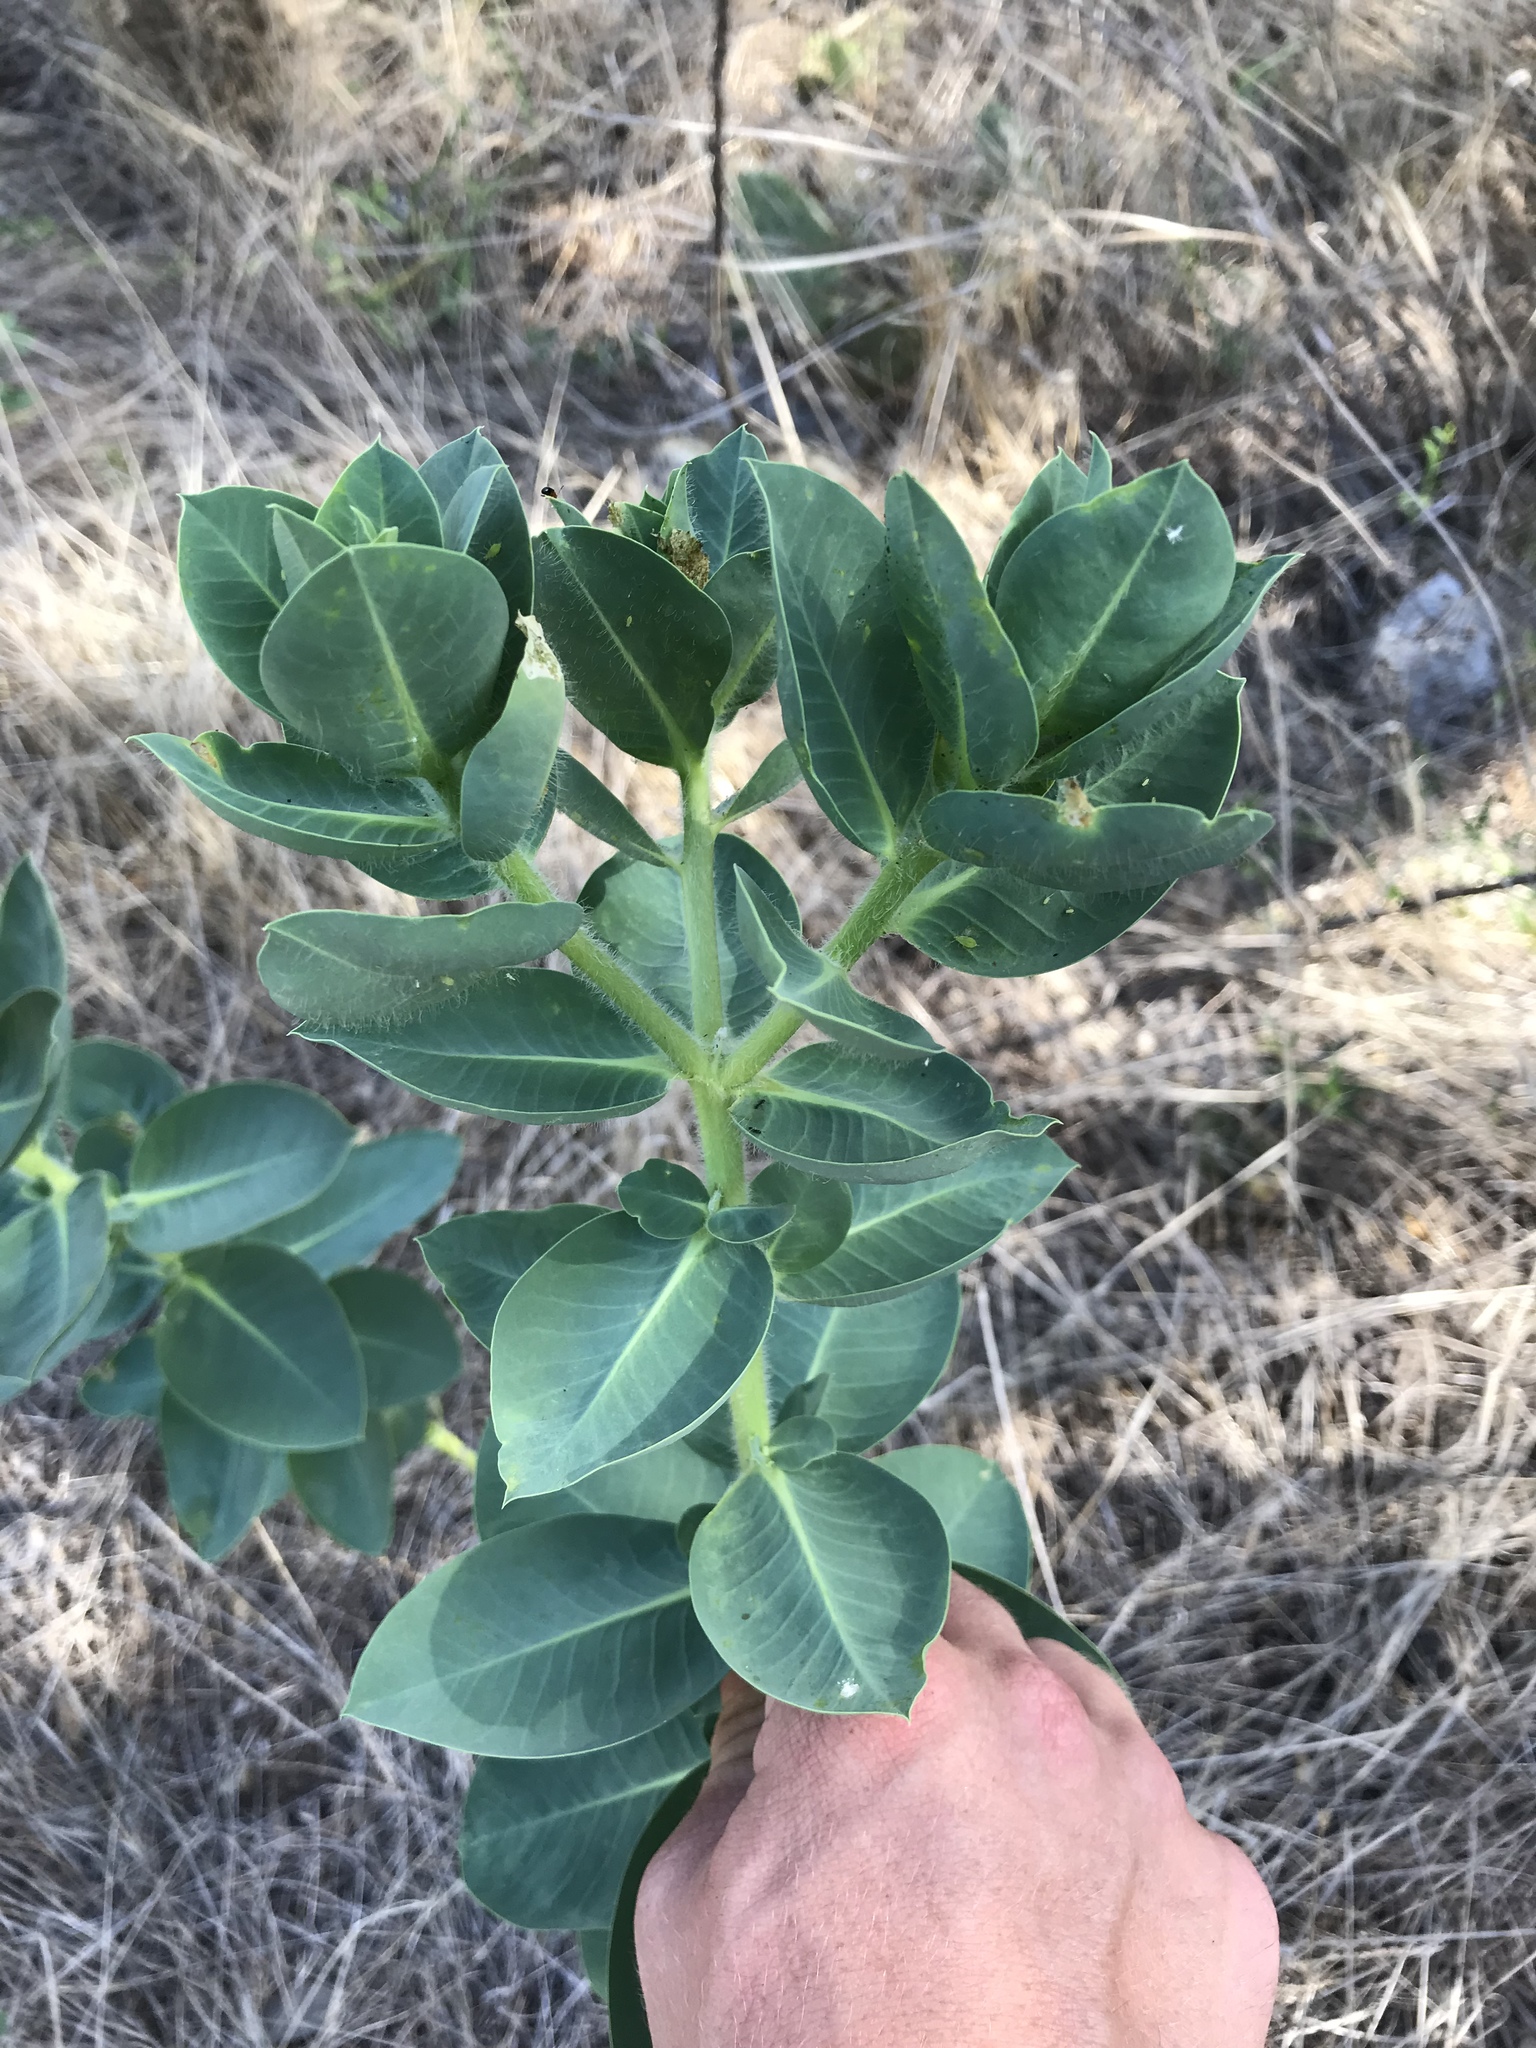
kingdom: Plantae
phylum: Tracheophyta
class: Magnoliopsida
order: Malpighiales
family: Euphorbiaceae
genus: Euphorbia
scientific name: Euphorbia marginata
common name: Ghostweed
